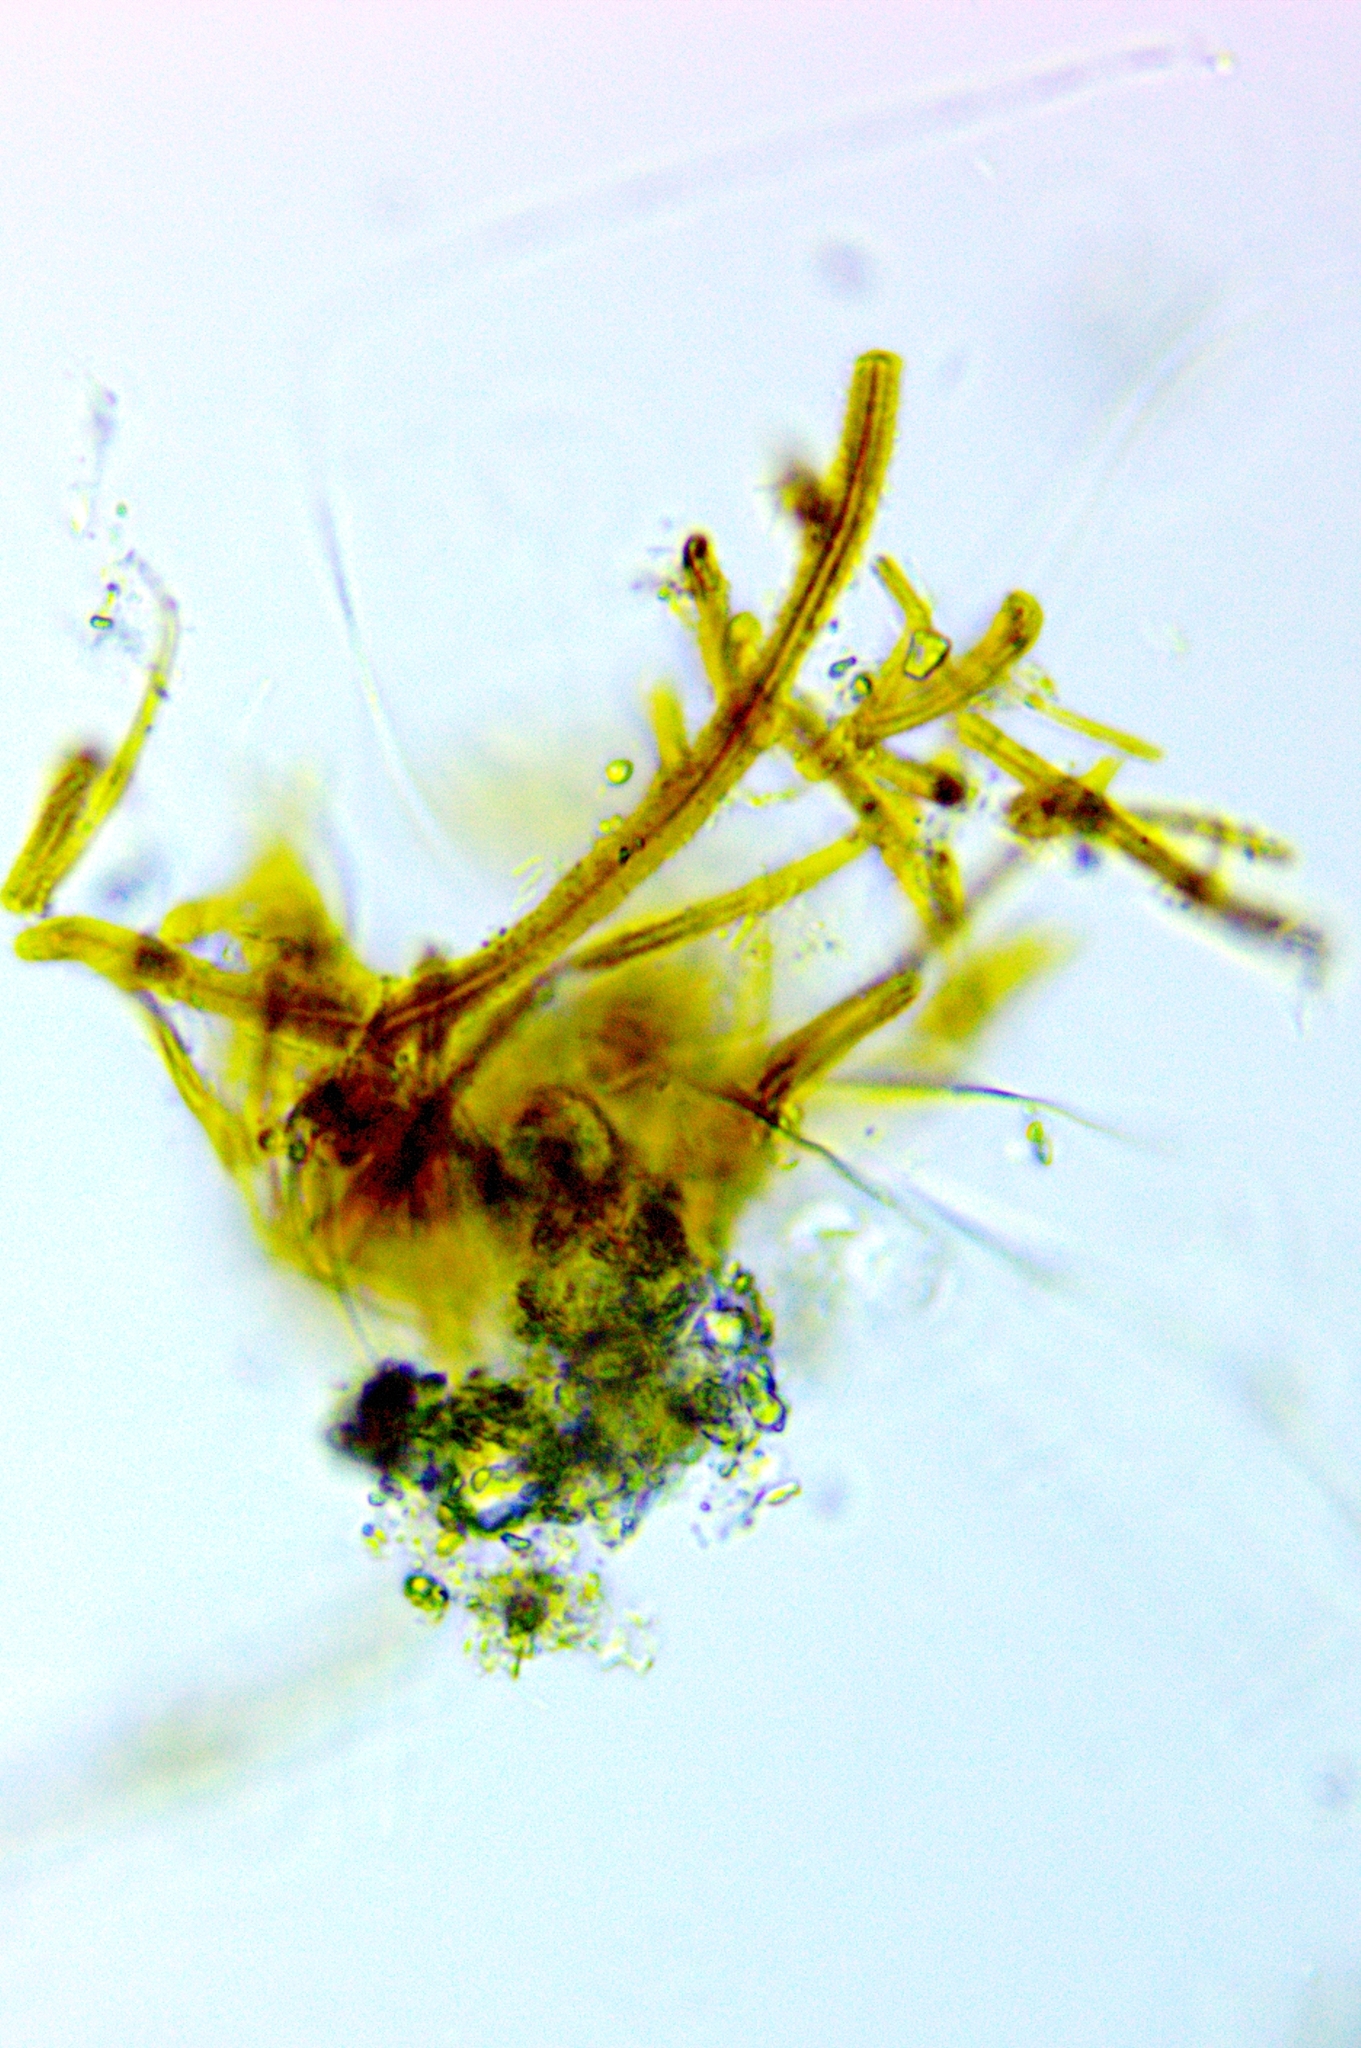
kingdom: Bacteria
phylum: Proteobacteria
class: Gammaproteobacteria
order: Burkholderiales
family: Burkholderiaceae
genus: Leptothrix
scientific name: Leptothrix
